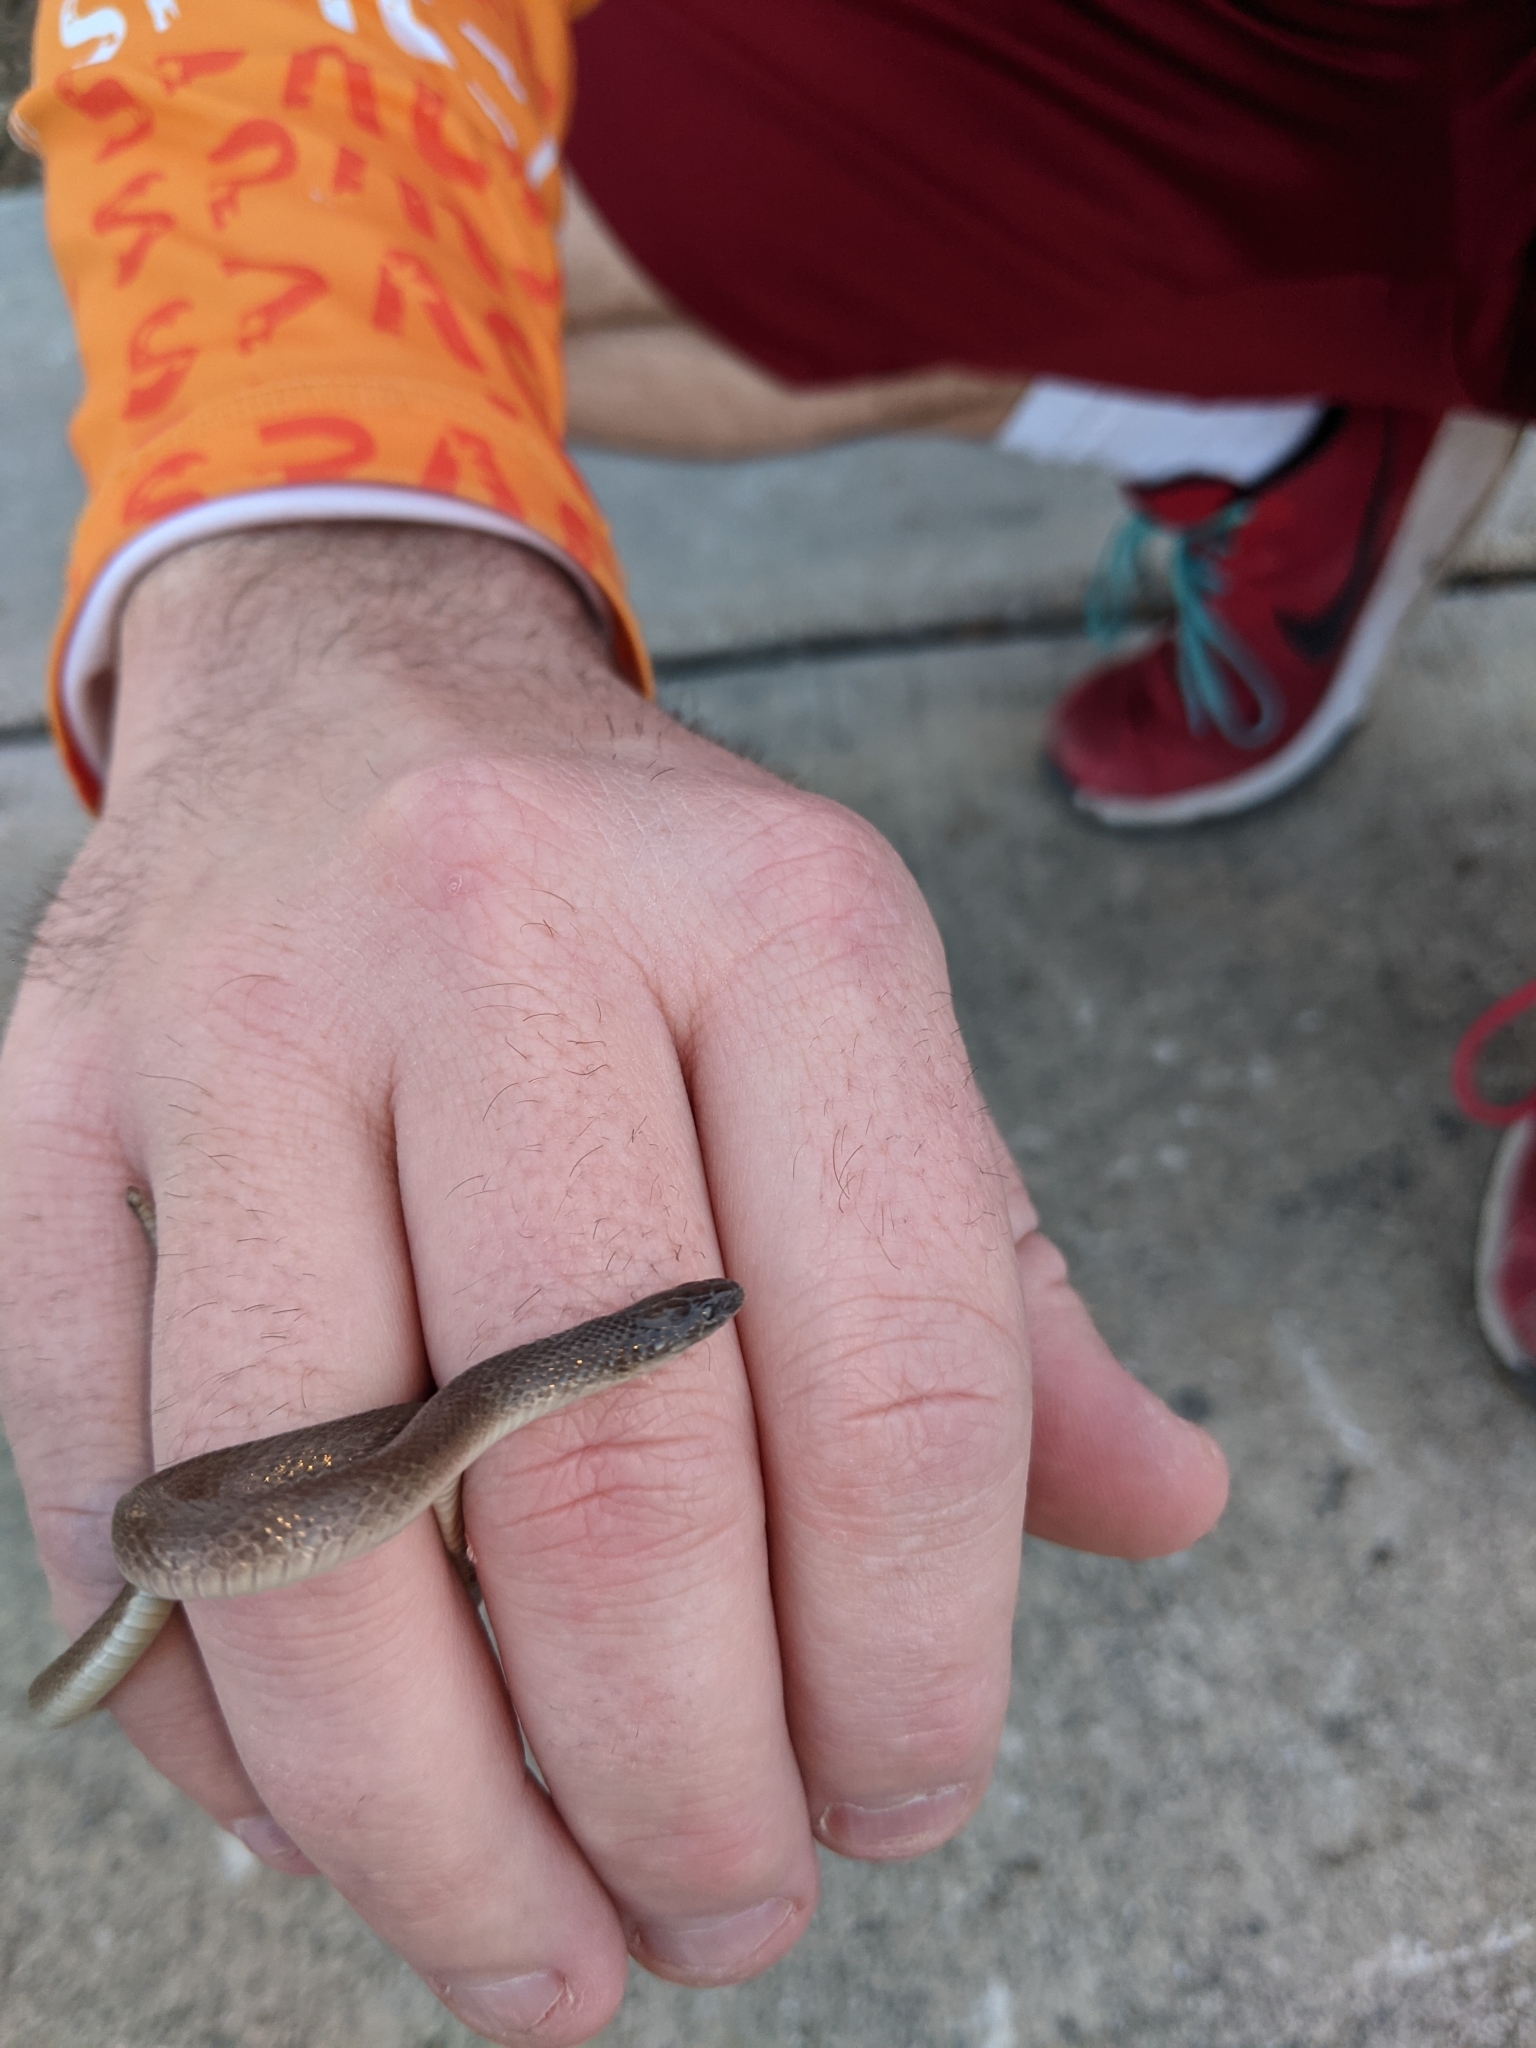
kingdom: Animalia
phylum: Chordata
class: Squamata
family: Colubridae
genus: Haldea
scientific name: Haldea striatula
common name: Rough earth snake
